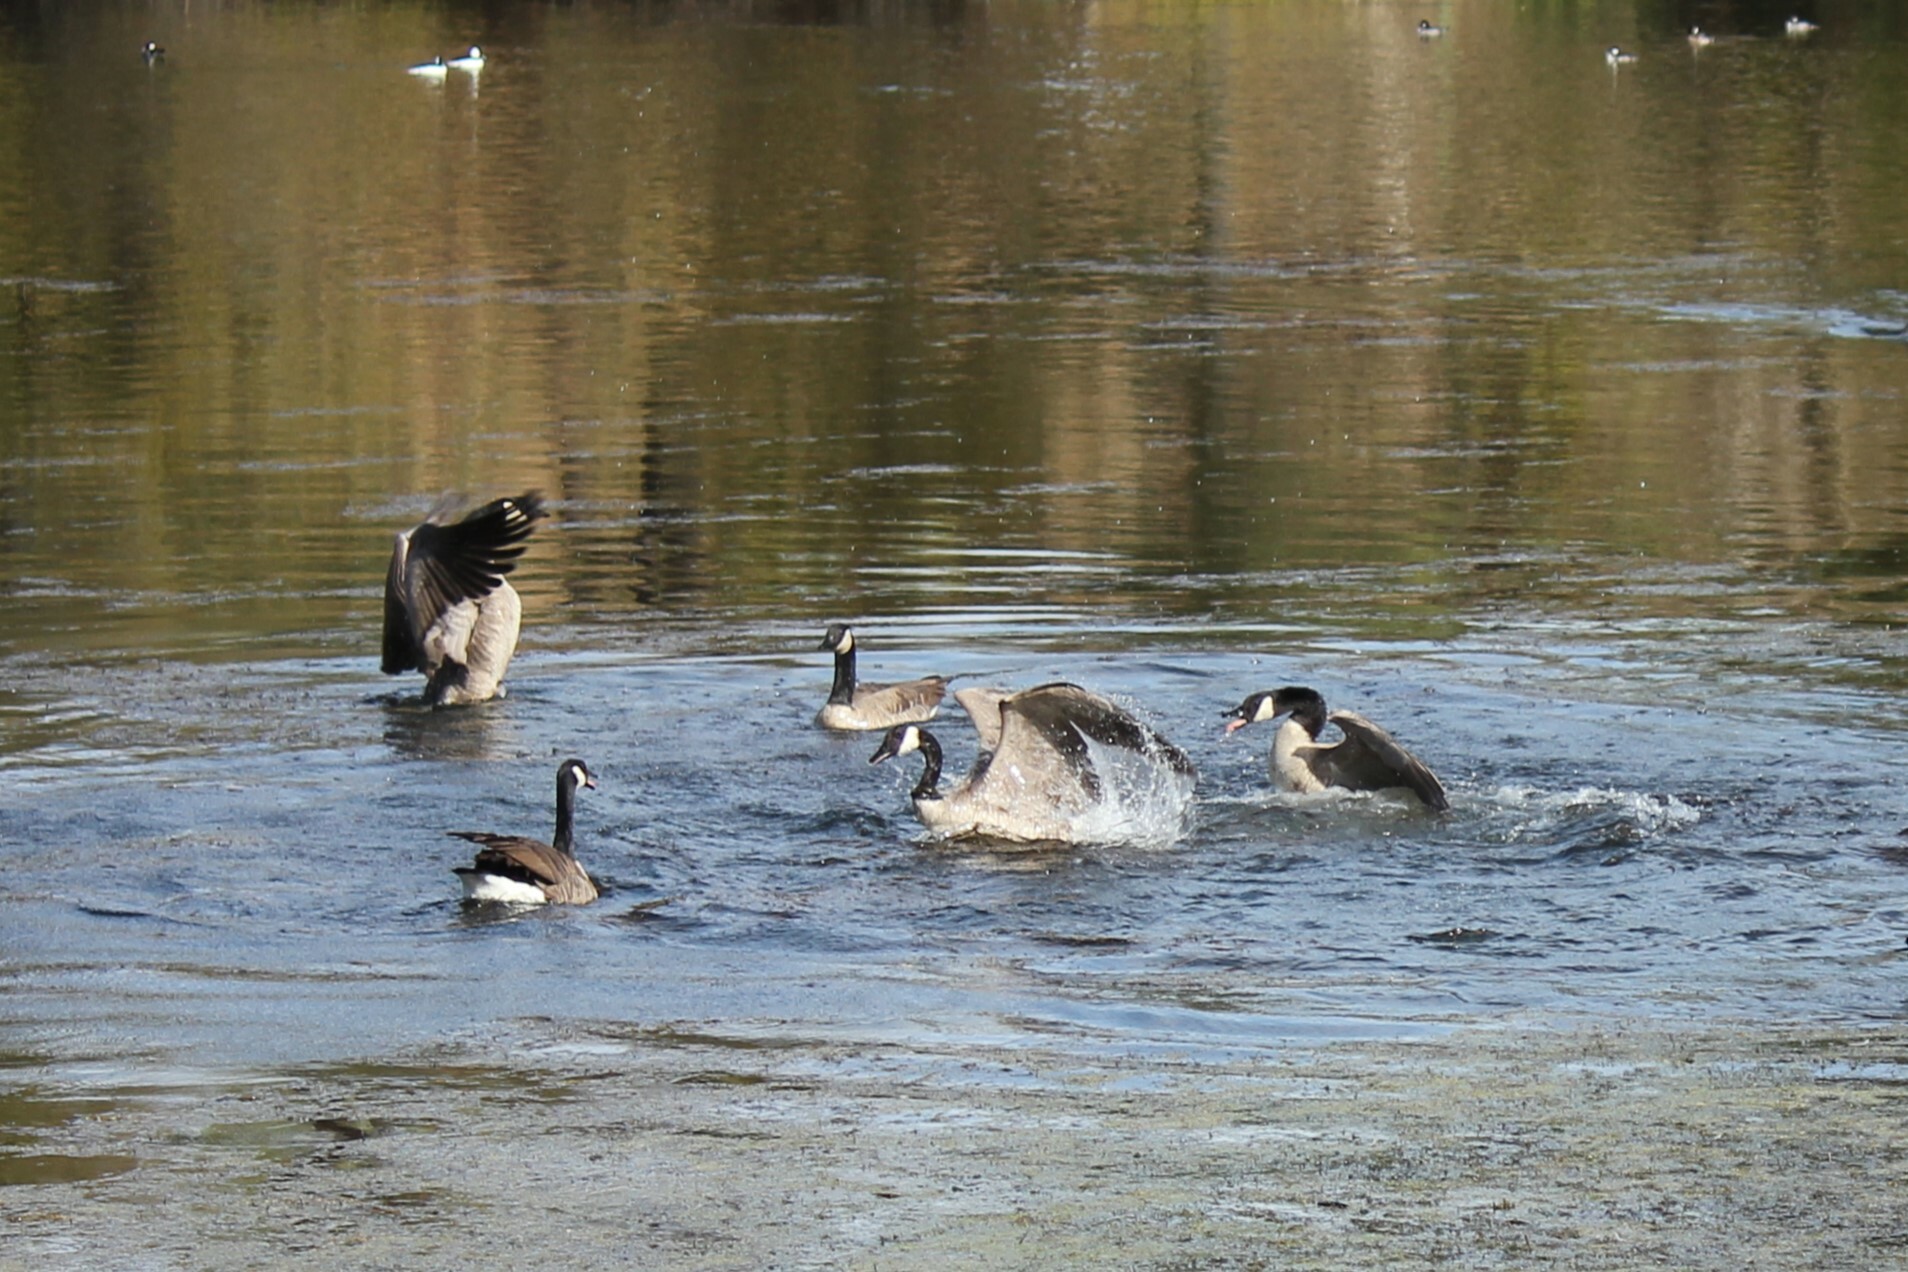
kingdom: Animalia
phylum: Chordata
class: Aves
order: Anseriformes
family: Anatidae
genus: Branta
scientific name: Branta canadensis
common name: Canada goose
